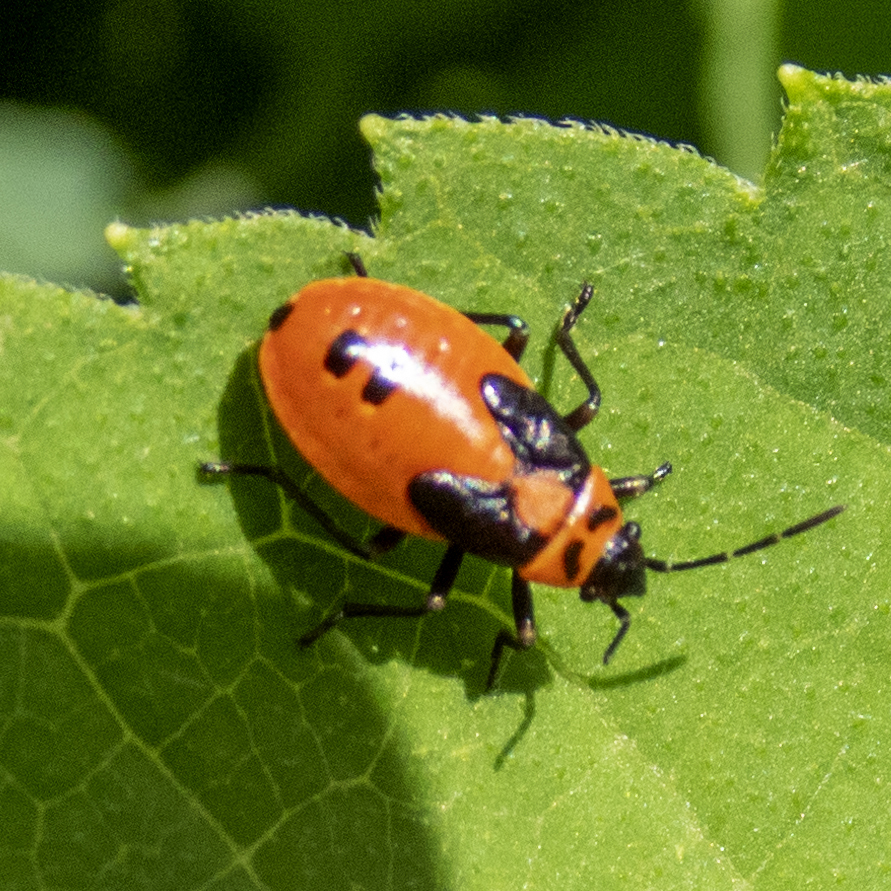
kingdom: Animalia
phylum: Arthropoda
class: Insecta
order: Hemiptera
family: Lygaeidae
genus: Lygaeus
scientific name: Lygaeus turcicus
